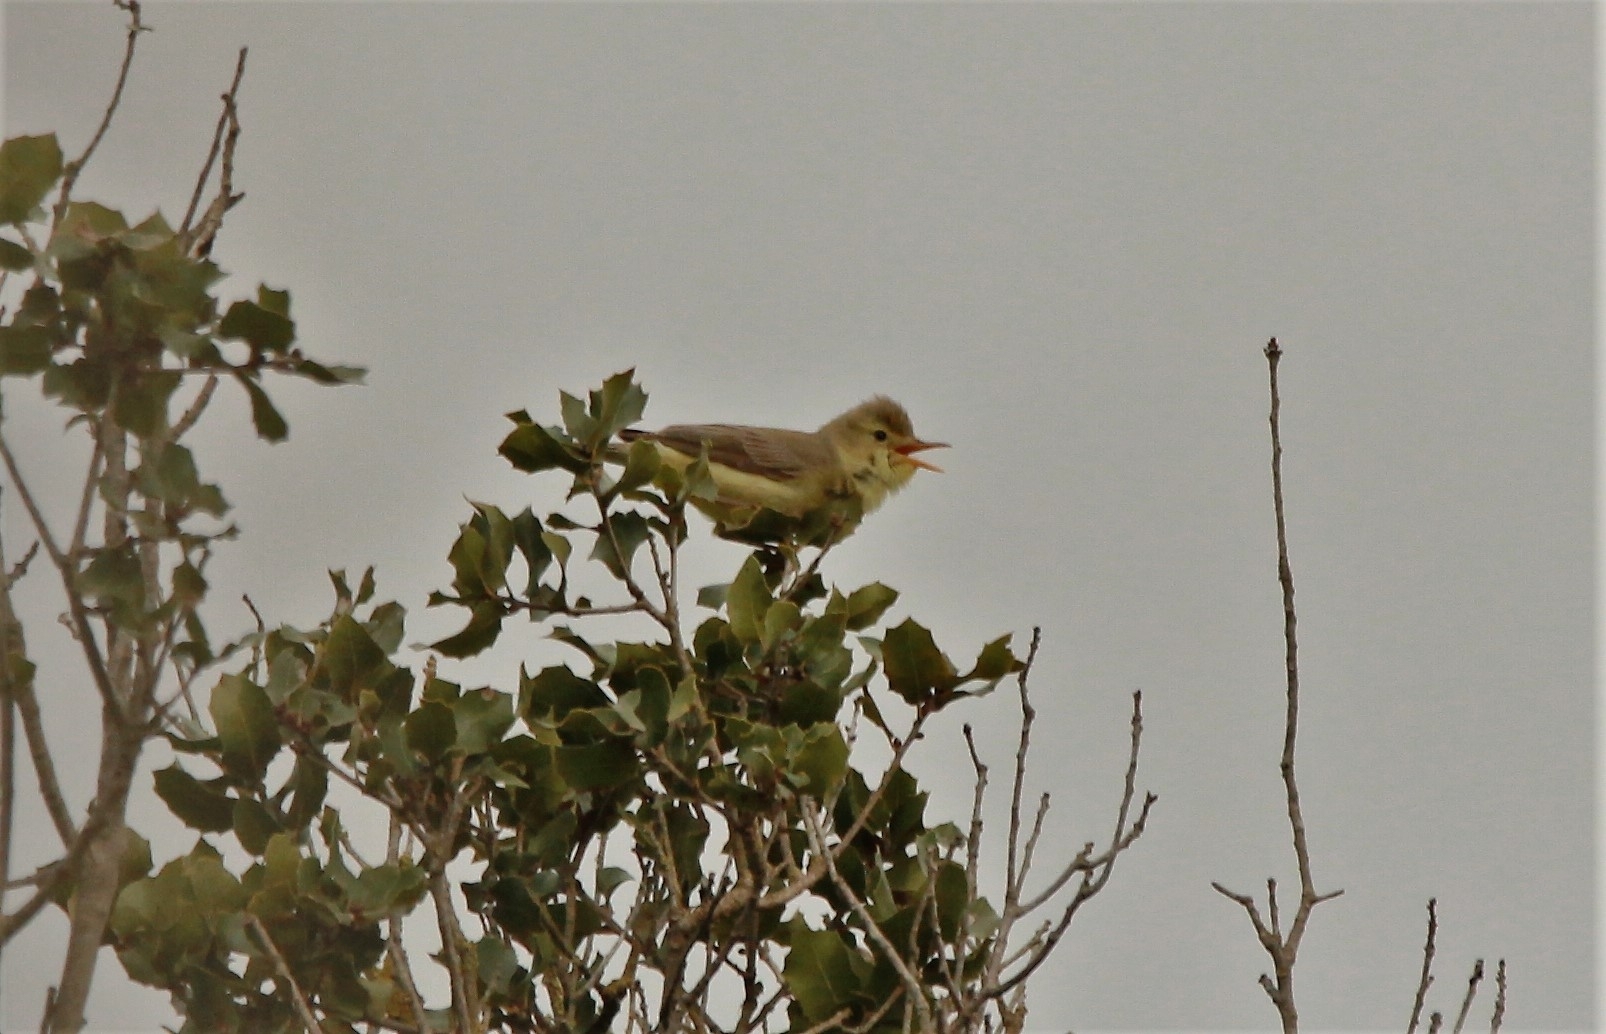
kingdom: Animalia
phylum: Chordata
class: Aves
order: Passeriformes
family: Acrocephalidae
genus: Hippolais
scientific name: Hippolais polyglotta
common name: Melodious warbler
